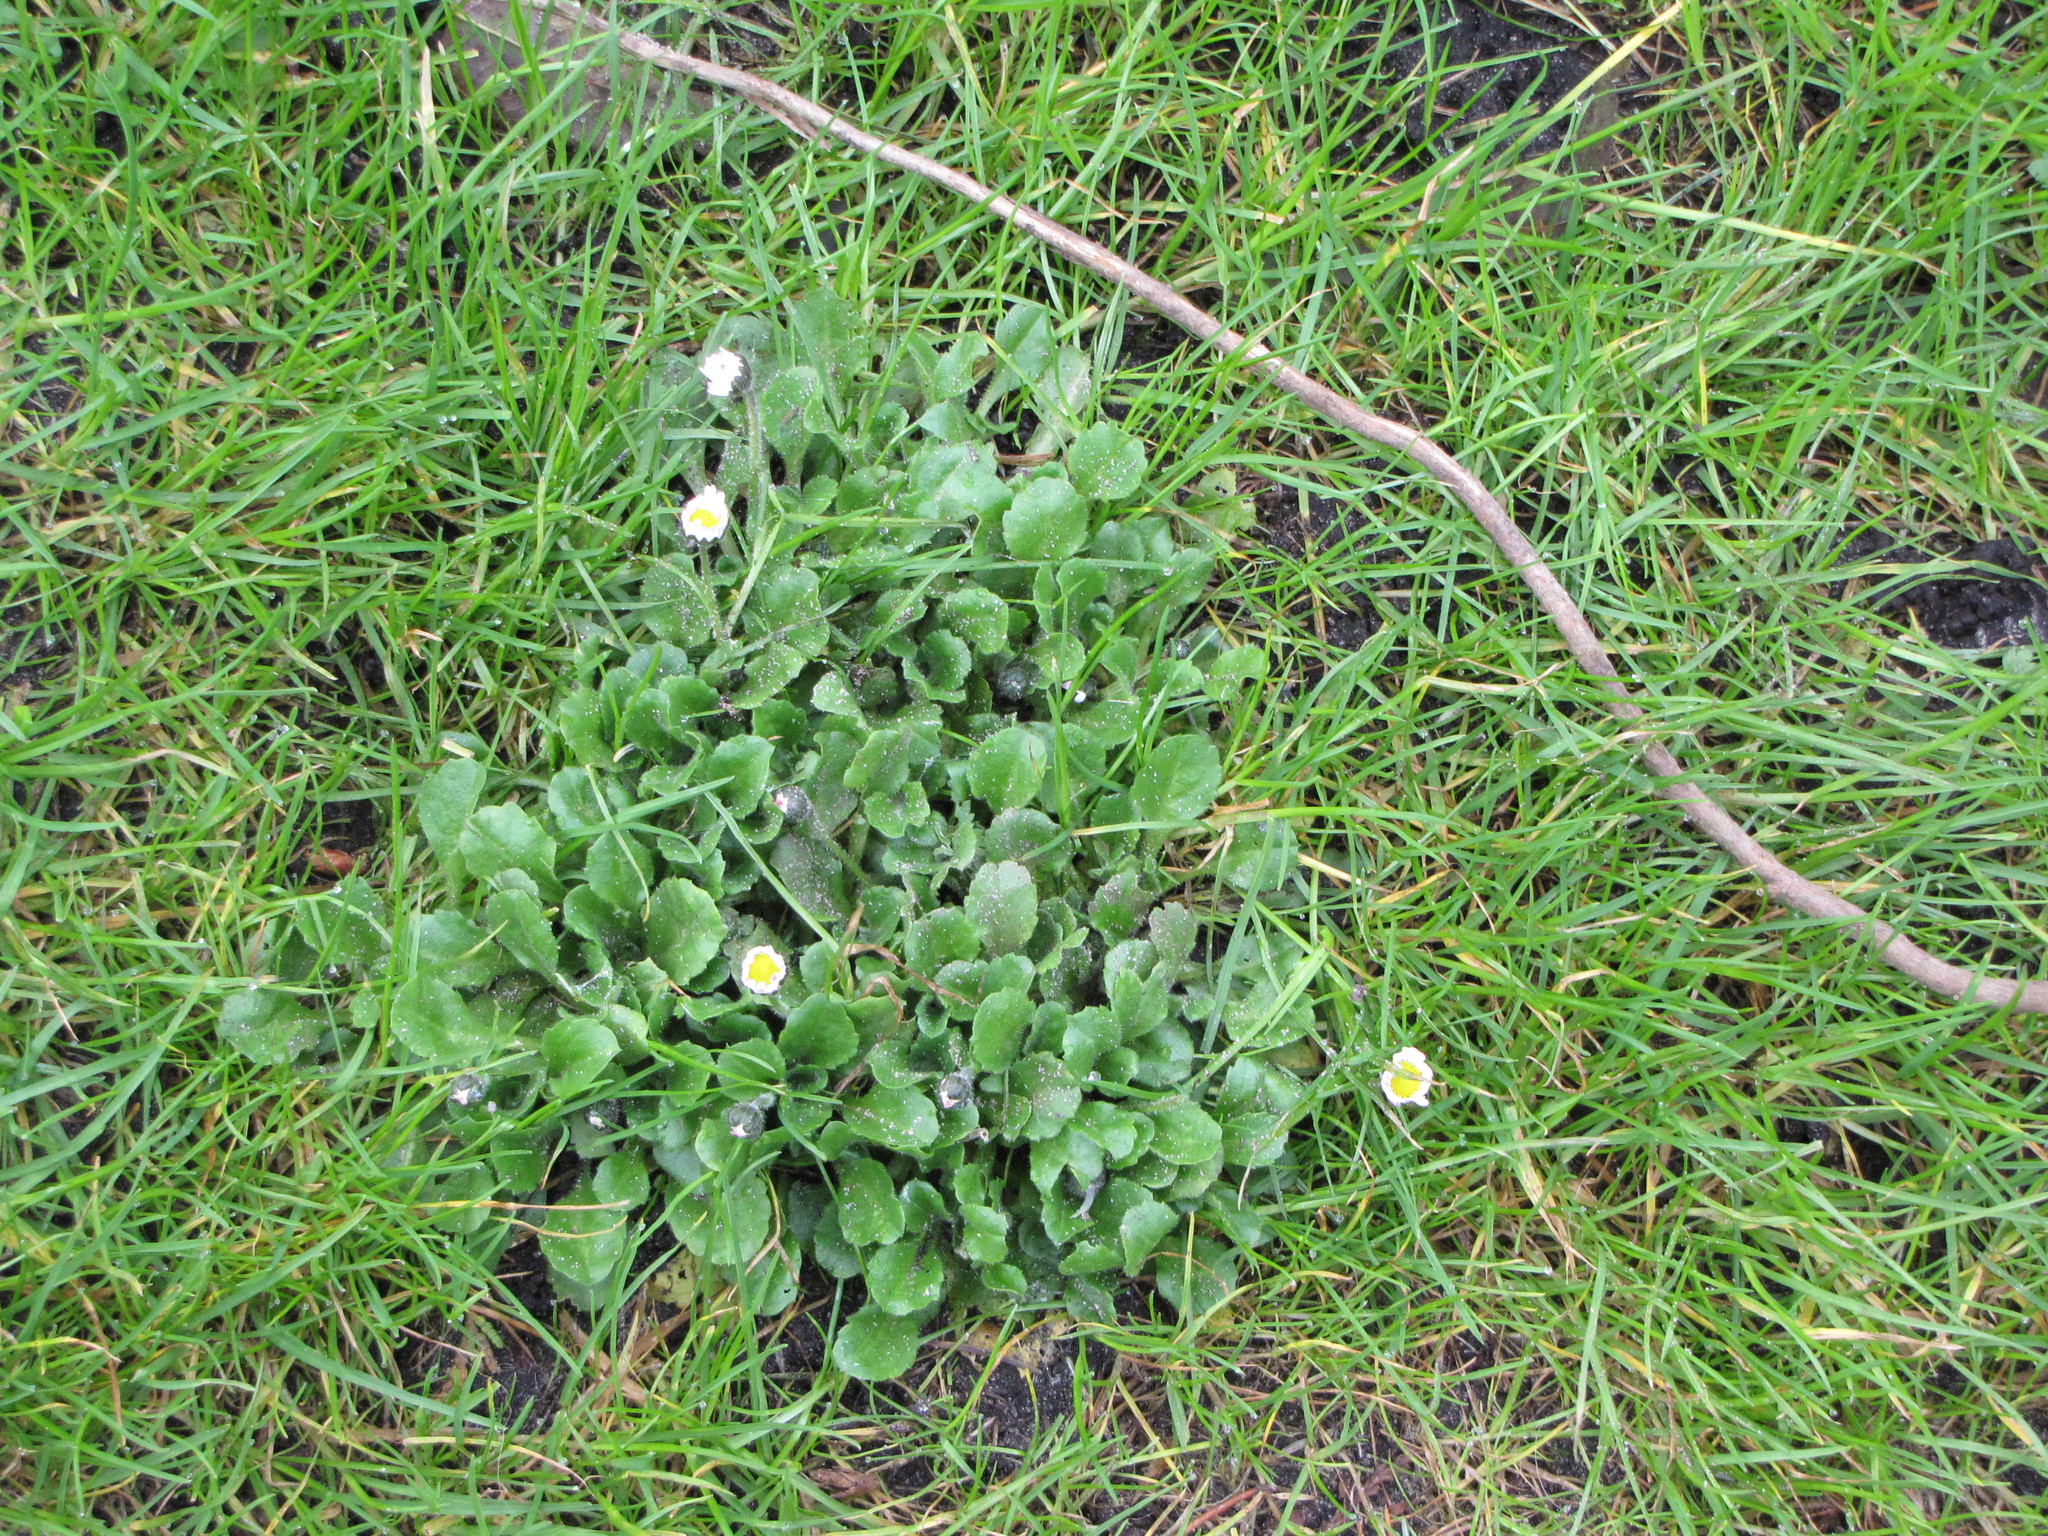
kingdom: Plantae
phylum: Tracheophyta
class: Magnoliopsida
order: Asterales
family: Asteraceae
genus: Bellis
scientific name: Bellis perennis
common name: Lawndaisy
